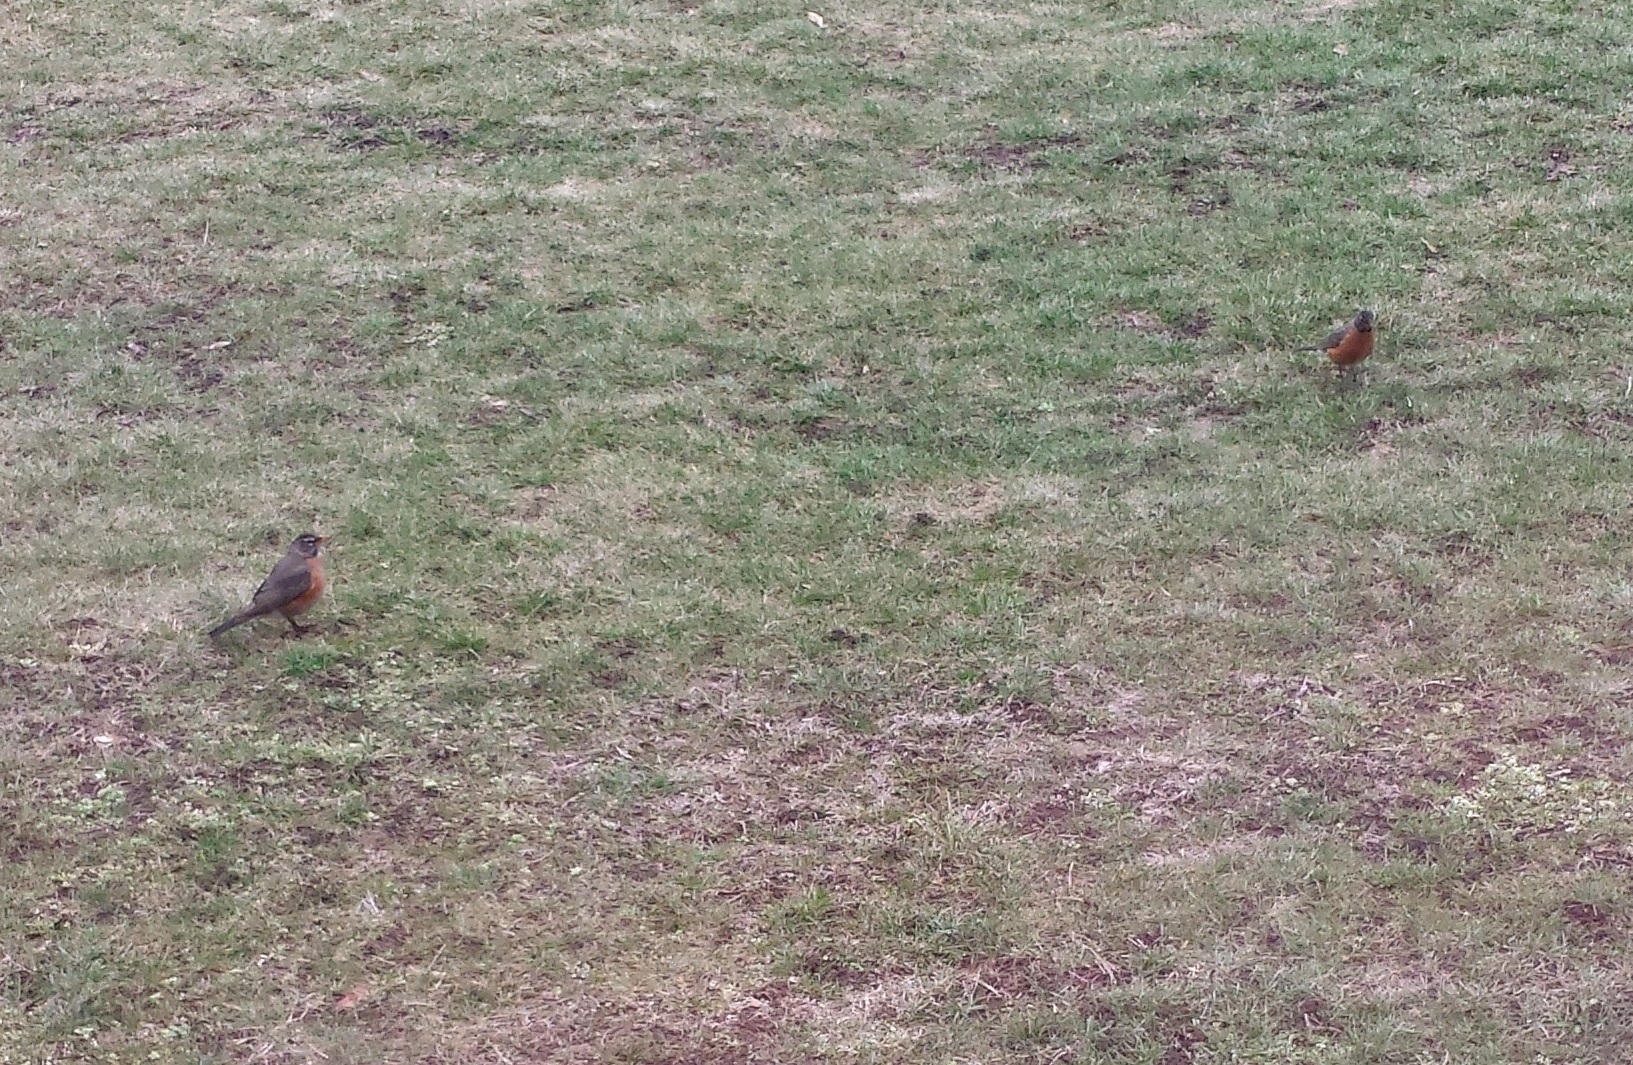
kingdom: Animalia
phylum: Chordata
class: Aves
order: Passeriformes
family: Turdidae
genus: Turdus
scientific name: Turdus migratorius
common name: American robin
